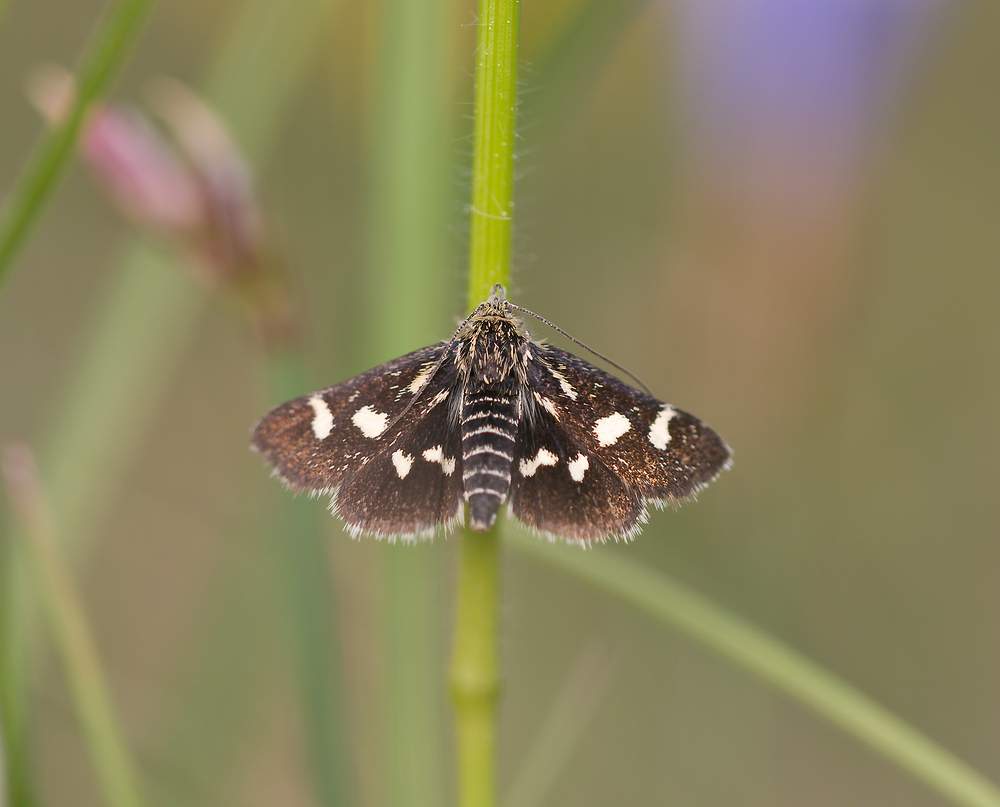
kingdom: Animalia
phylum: Arthropoda
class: Insecta
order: Lepidoptera
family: Crambidae
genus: Eurrhypis
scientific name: Eurrhypis pollinalis
